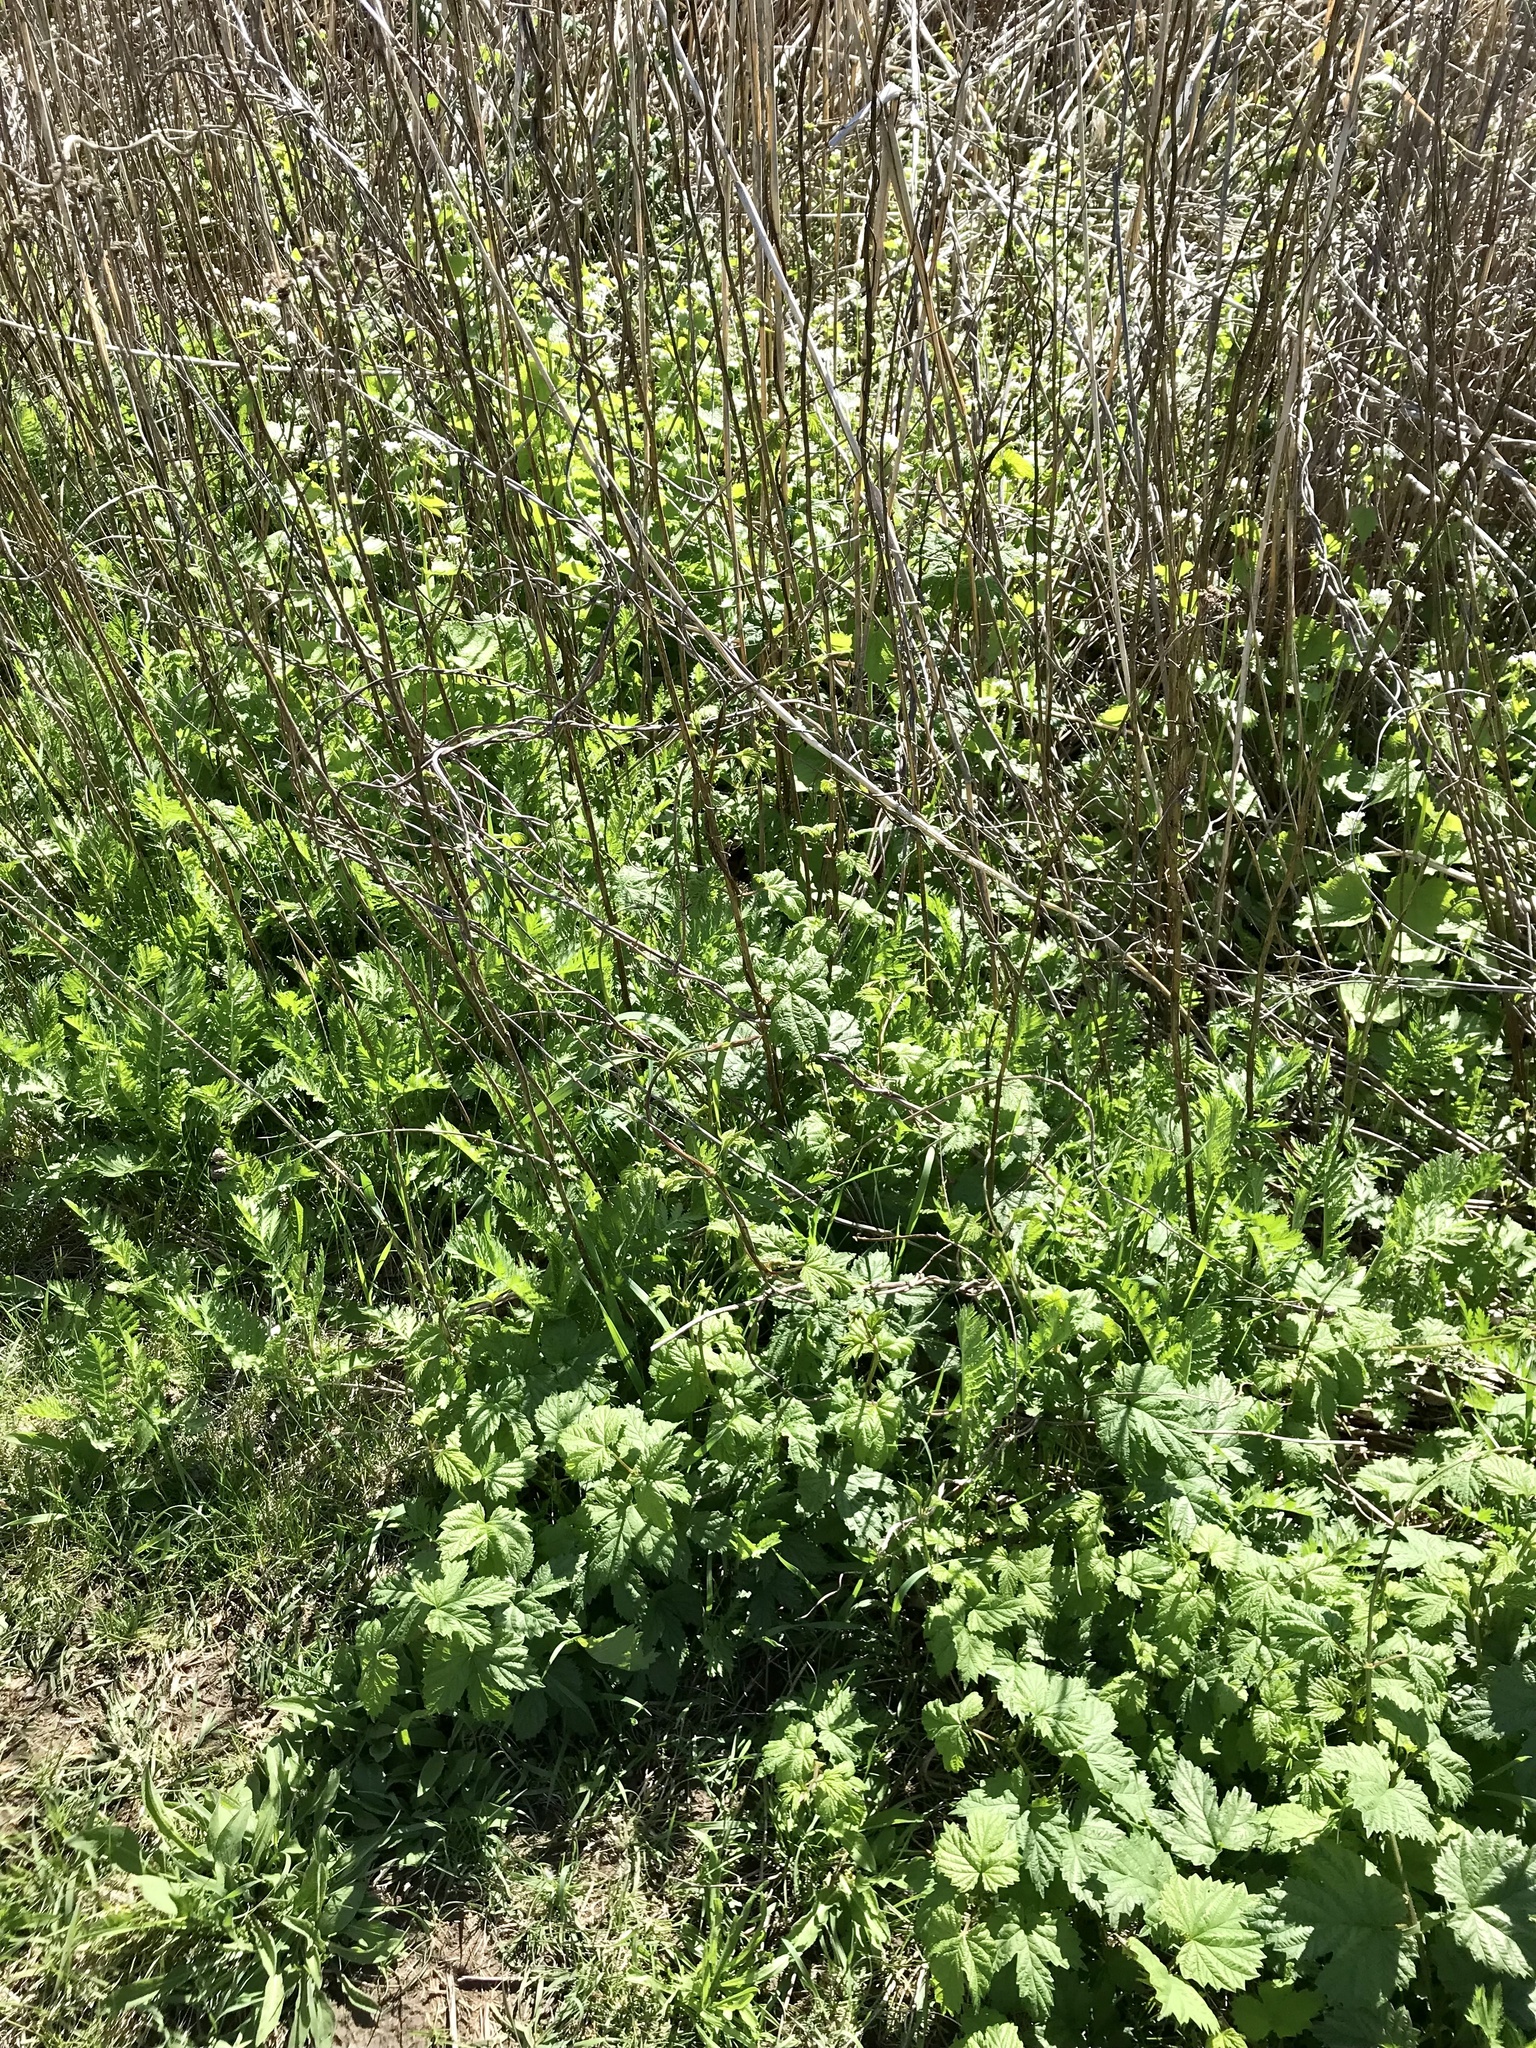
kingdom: Plantae
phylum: Tracheophyta
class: Magnoliopsida
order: Rosales
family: Cannabaceae
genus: Humulus
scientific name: Humulus lupulus
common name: Hop
